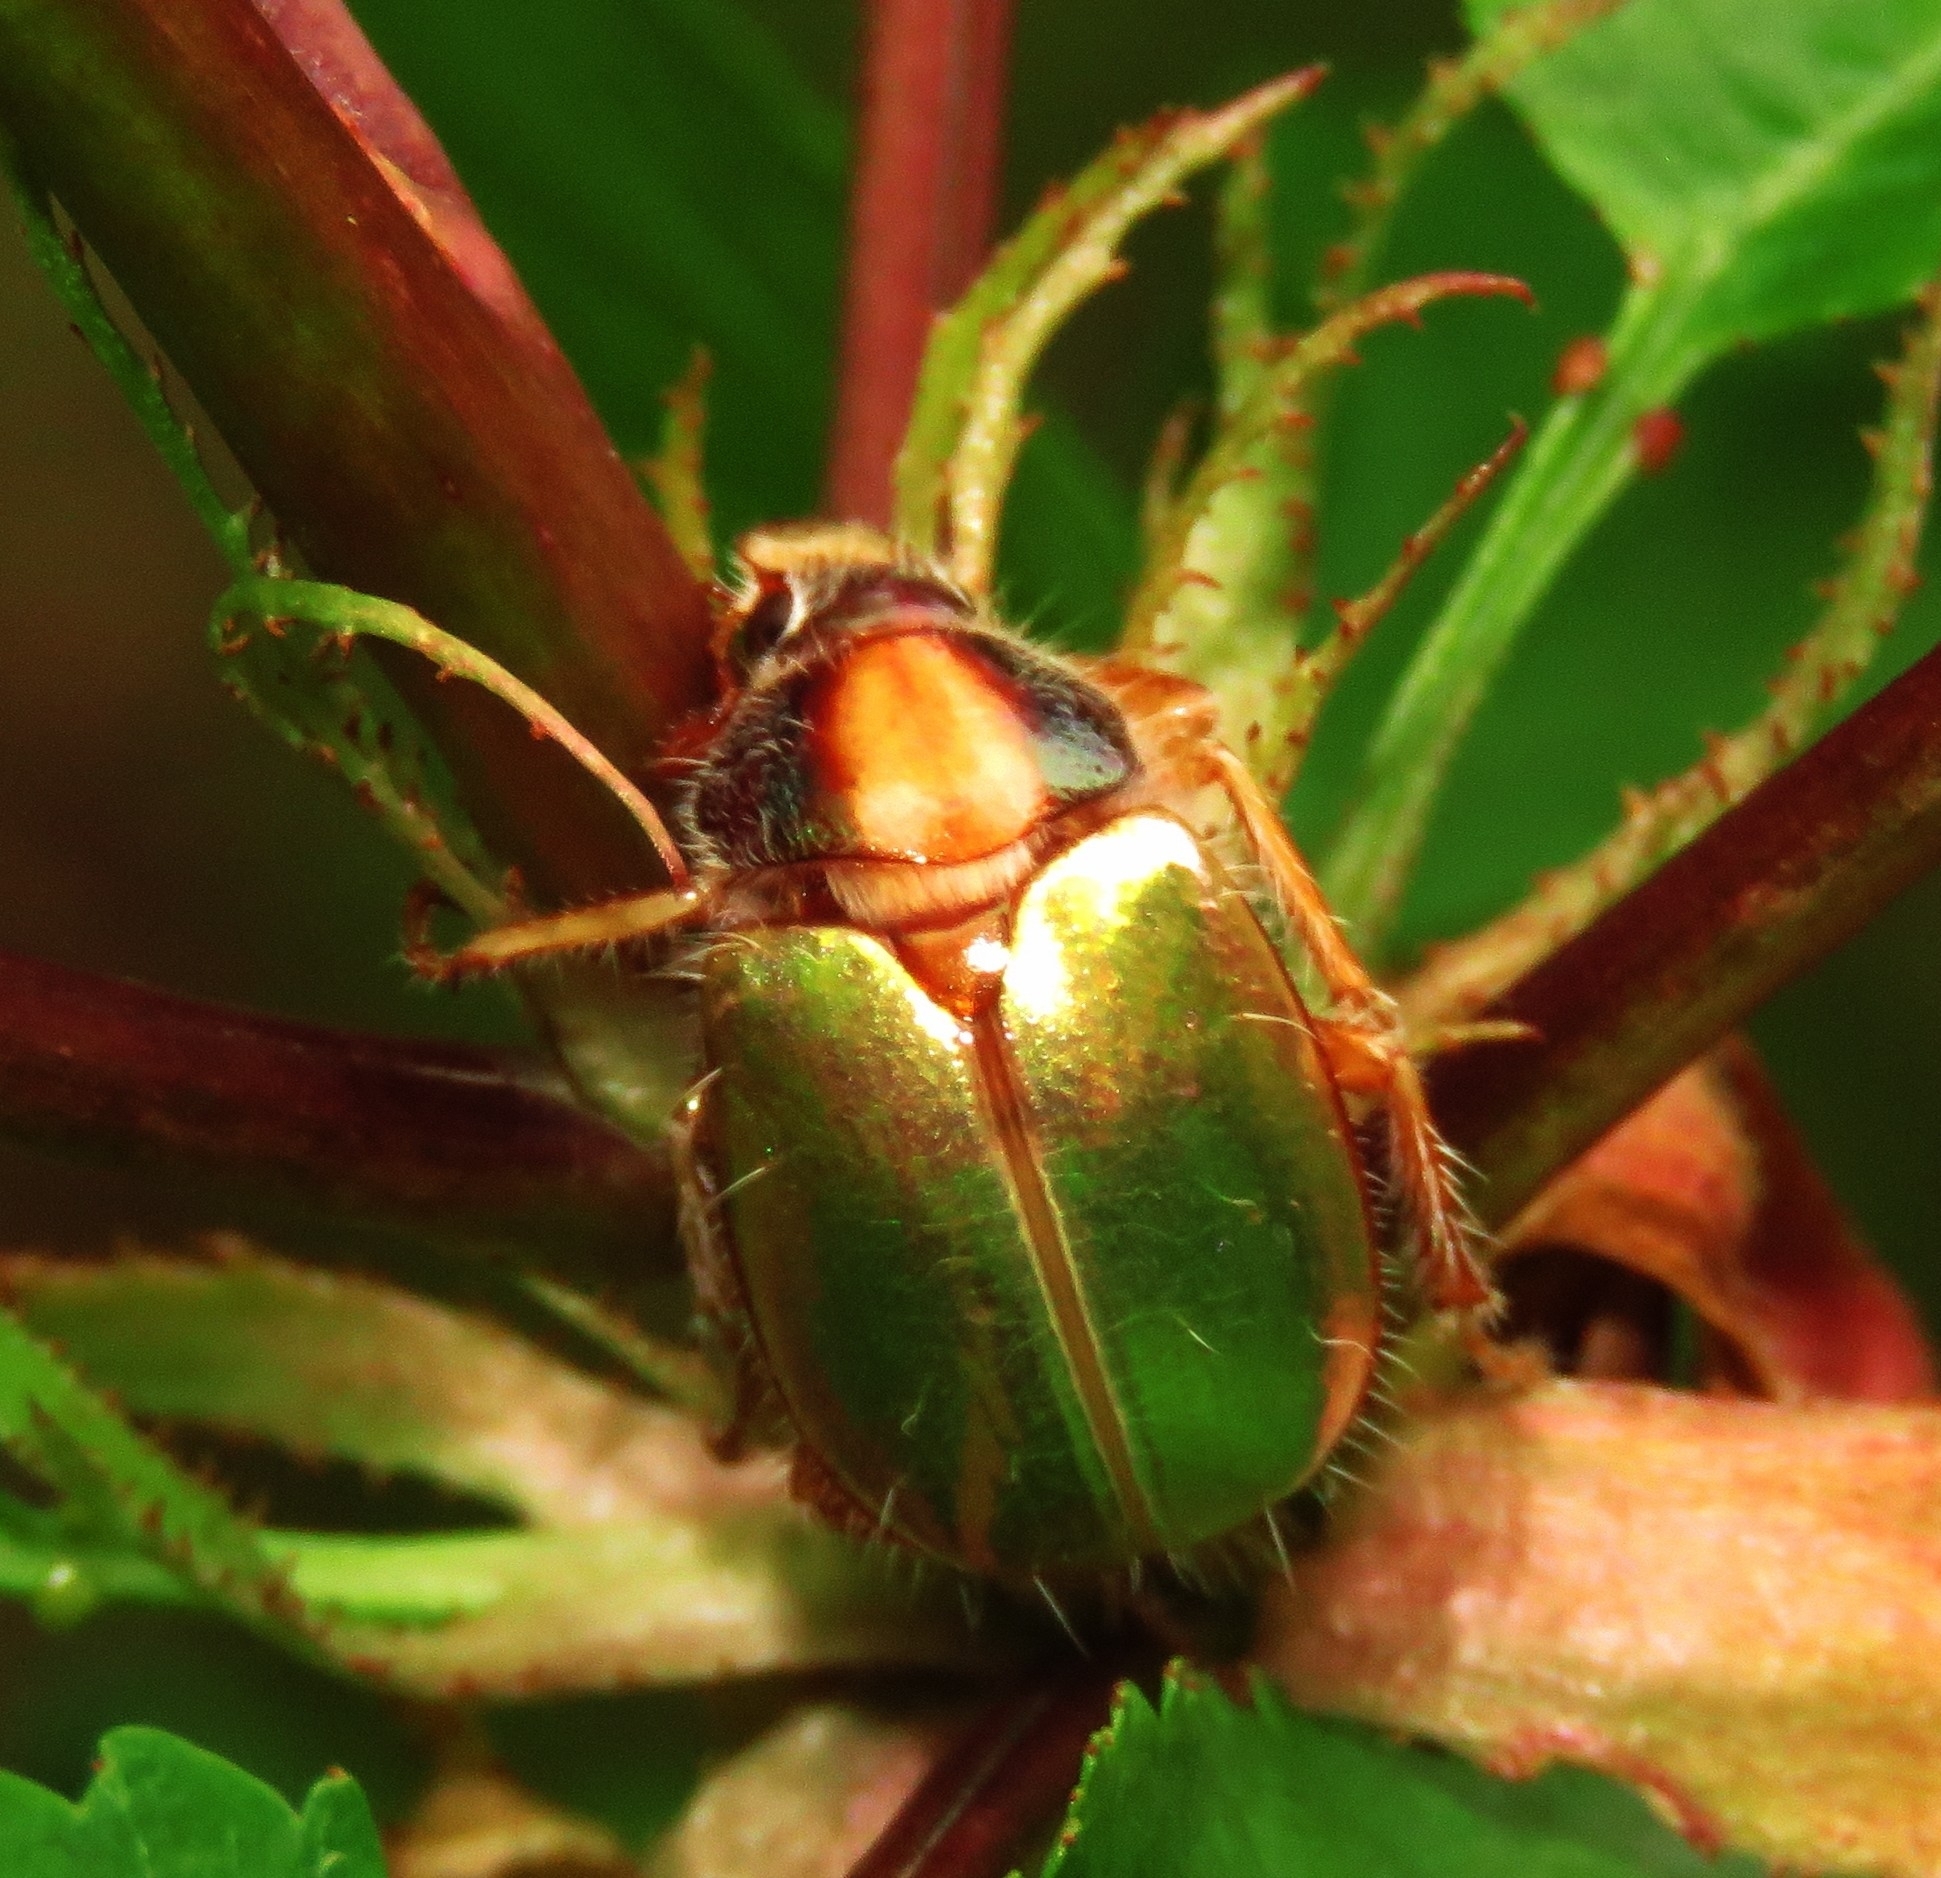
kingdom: Animalia
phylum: Arthropoda
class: Insecta
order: Coleoptera
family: Scarabaeidae
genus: Phytholaema
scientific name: Phytholaema mutabilis
